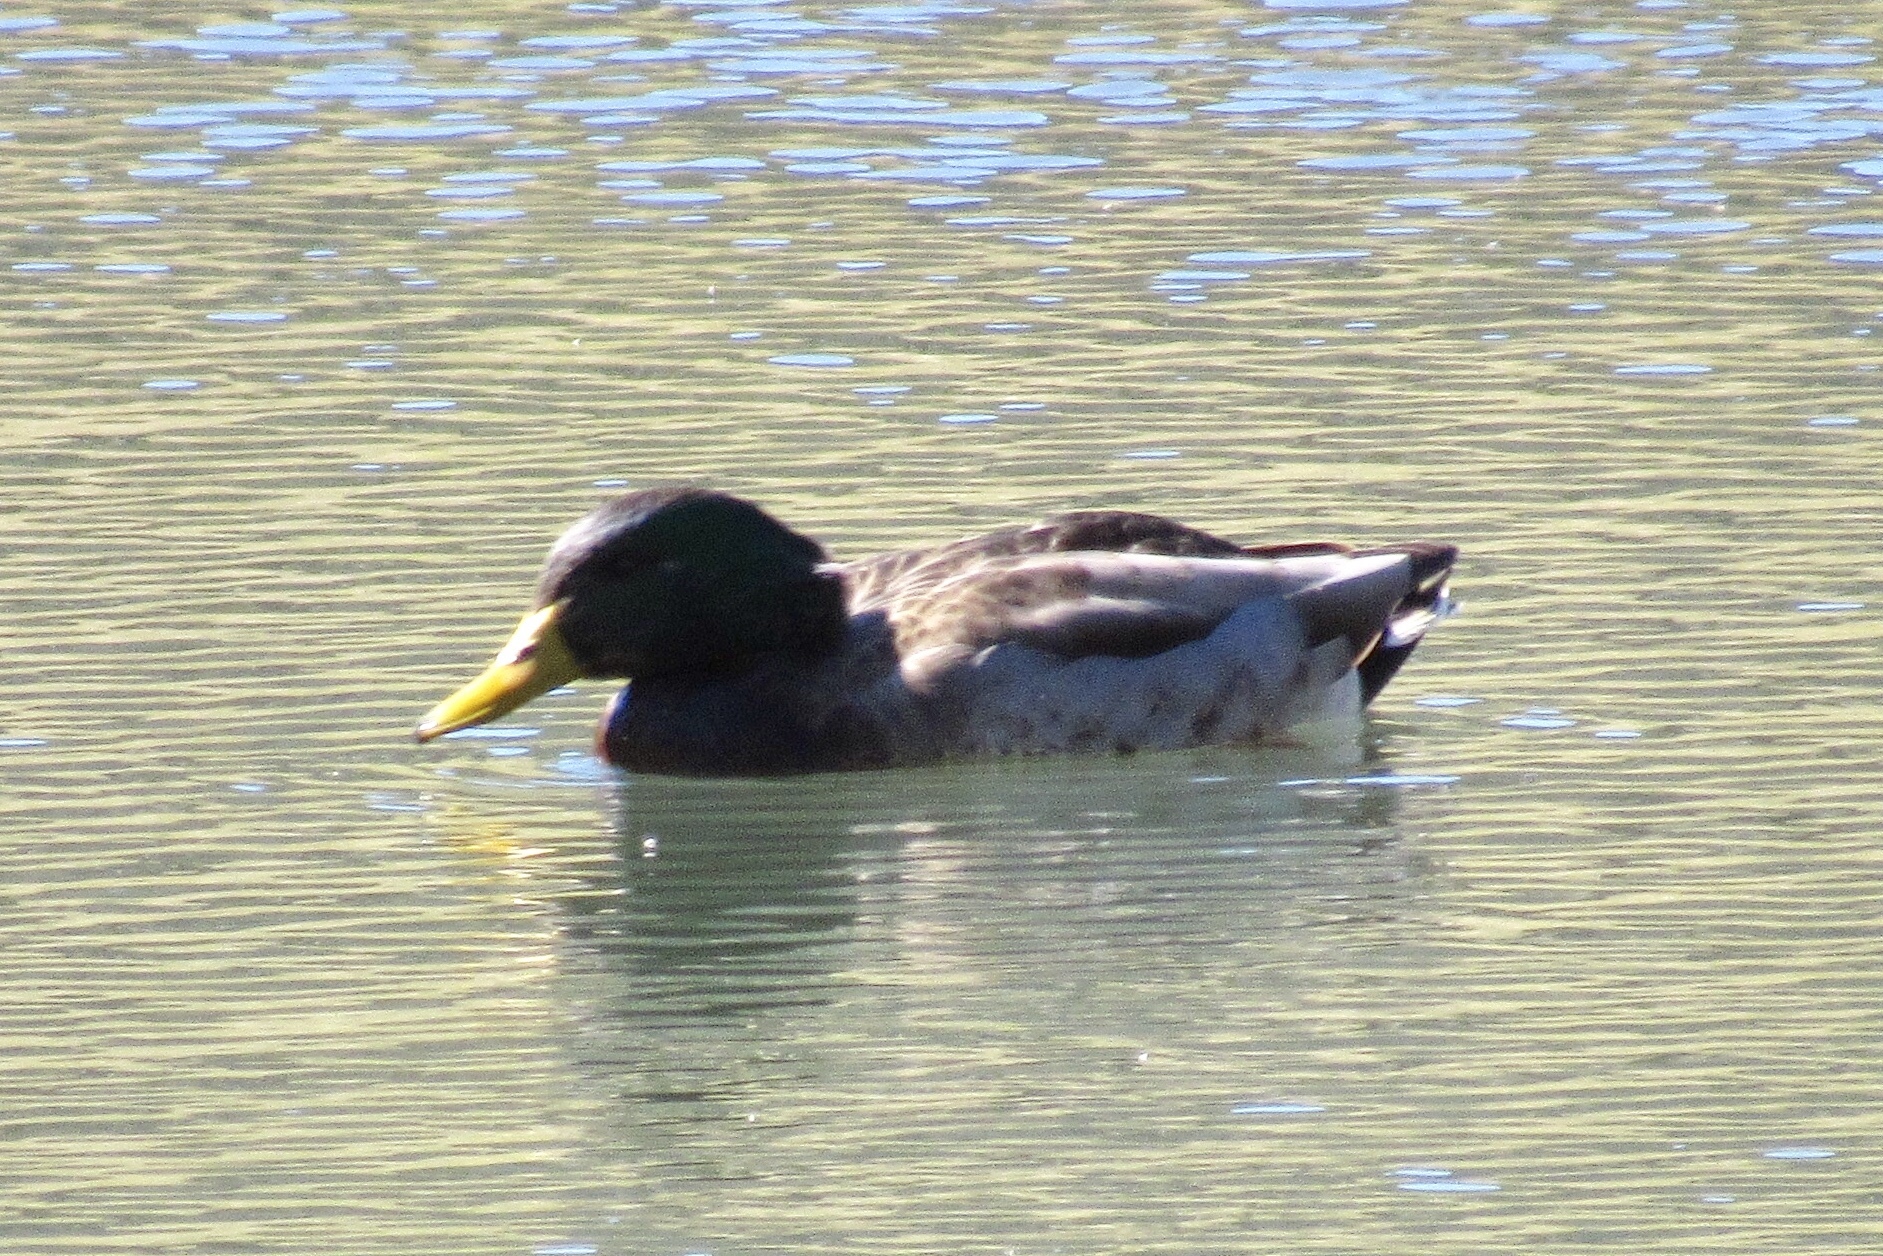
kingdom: Animalia
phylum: Chordata
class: Aves
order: Anseriformes
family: Anatidae
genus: Anas
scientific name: Anas platyrhynchos
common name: Mallard
